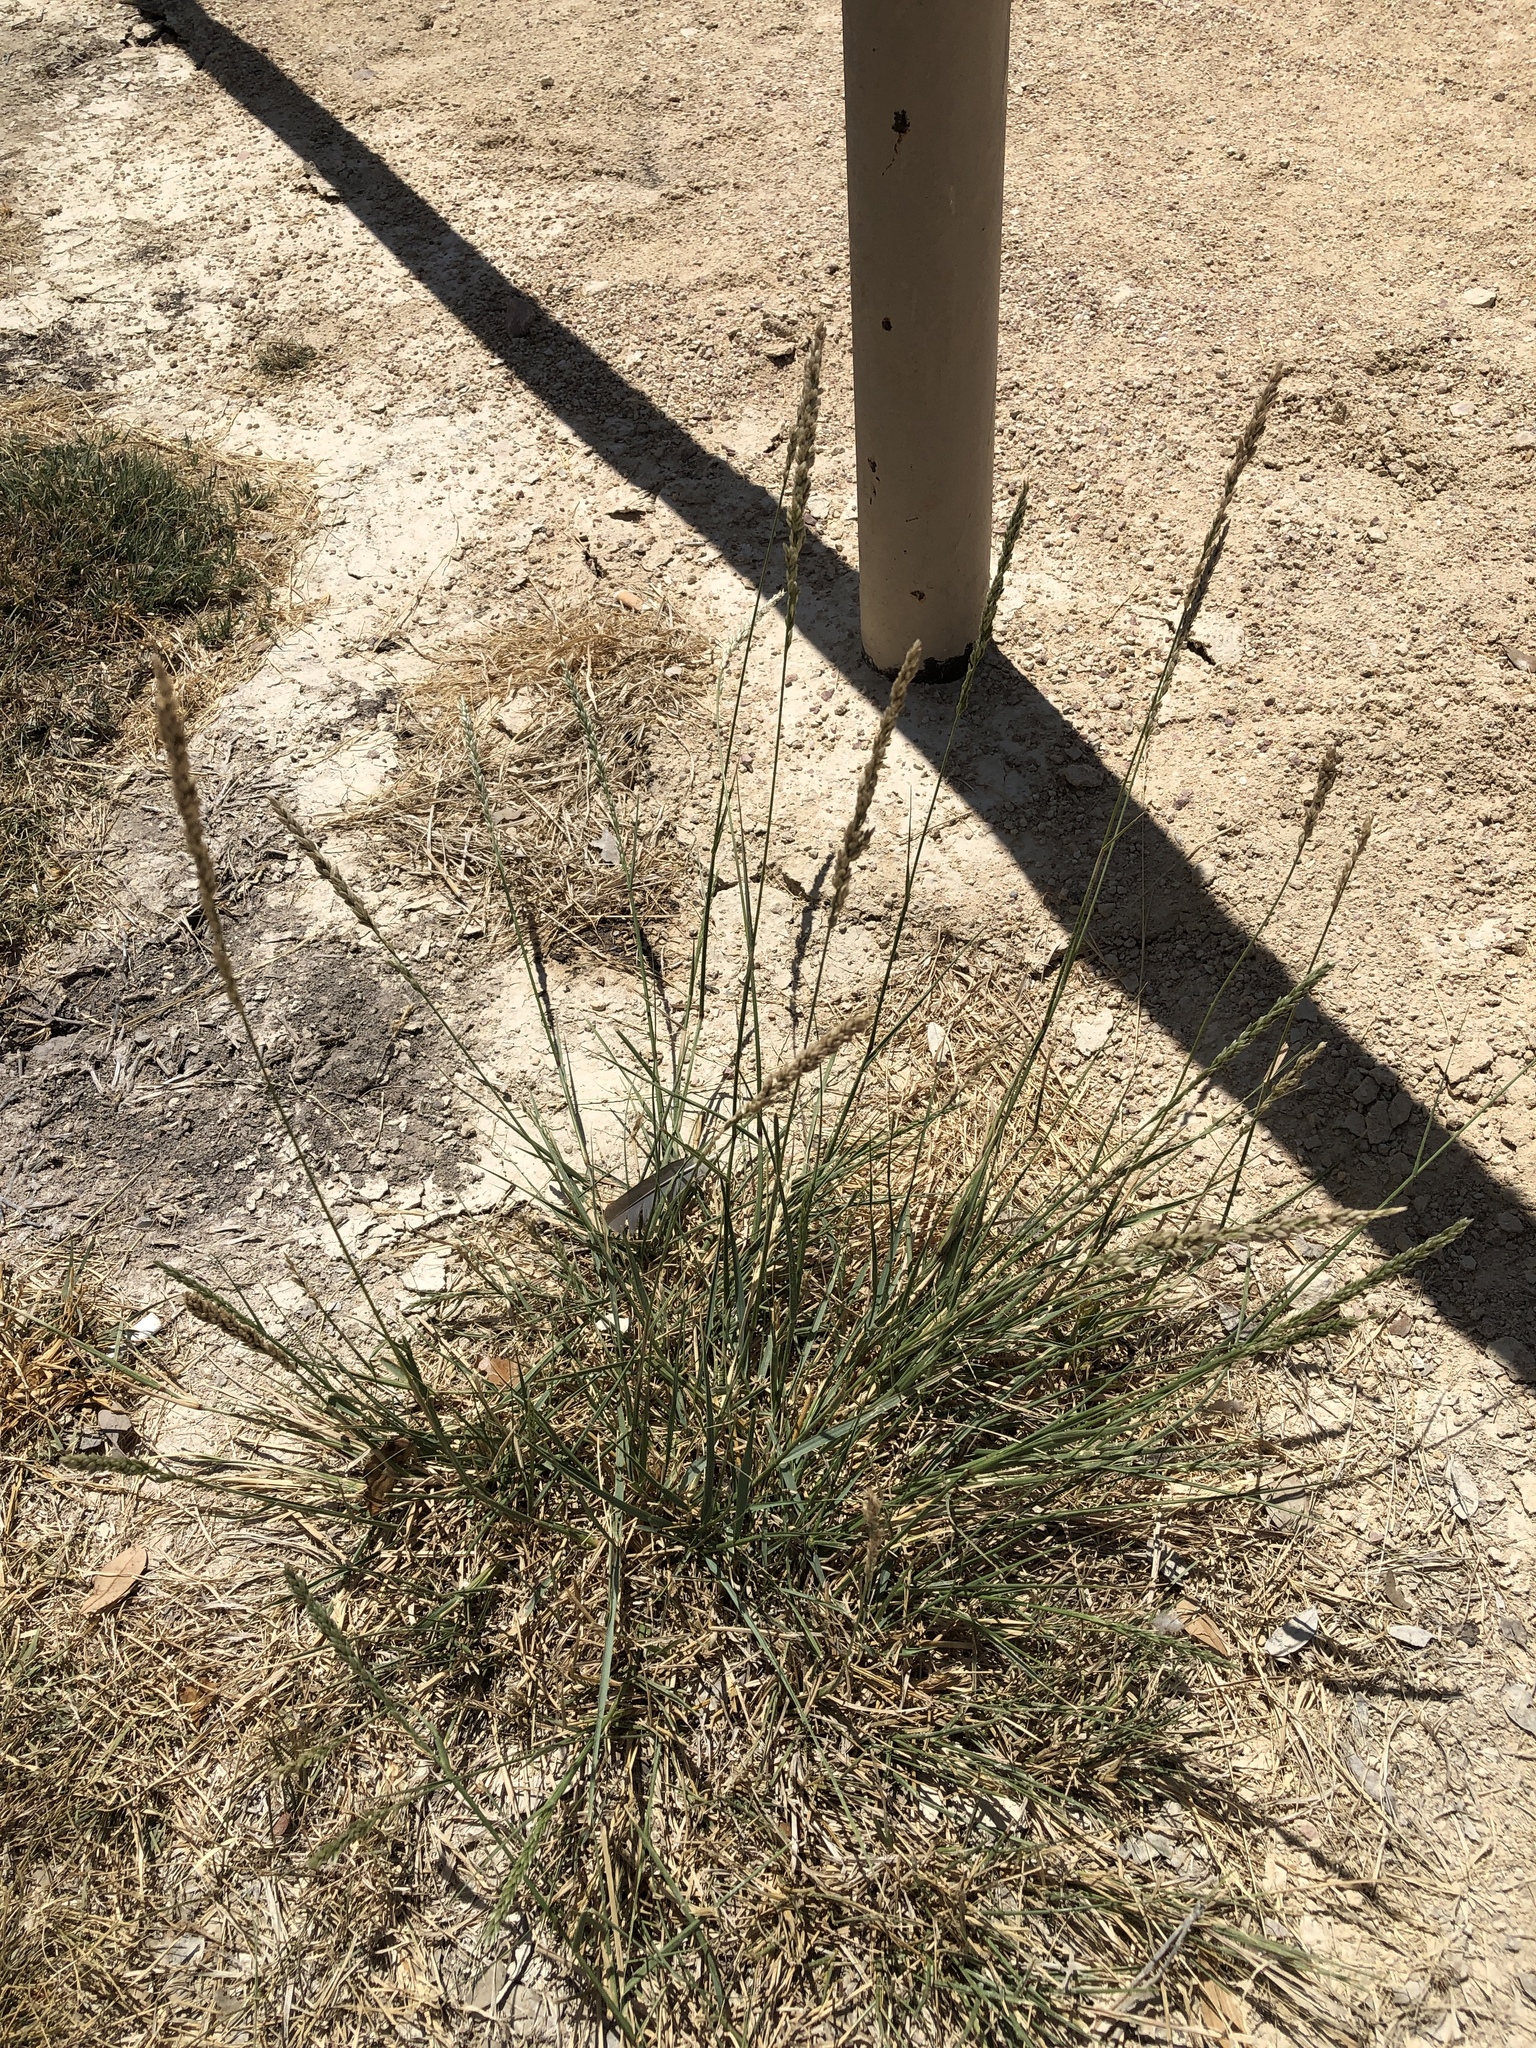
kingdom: Plantae
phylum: Tracheophyta
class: Liliopsida
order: Poales
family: Poaceae
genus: Tridens
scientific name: Tridens albescens
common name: White tridens
